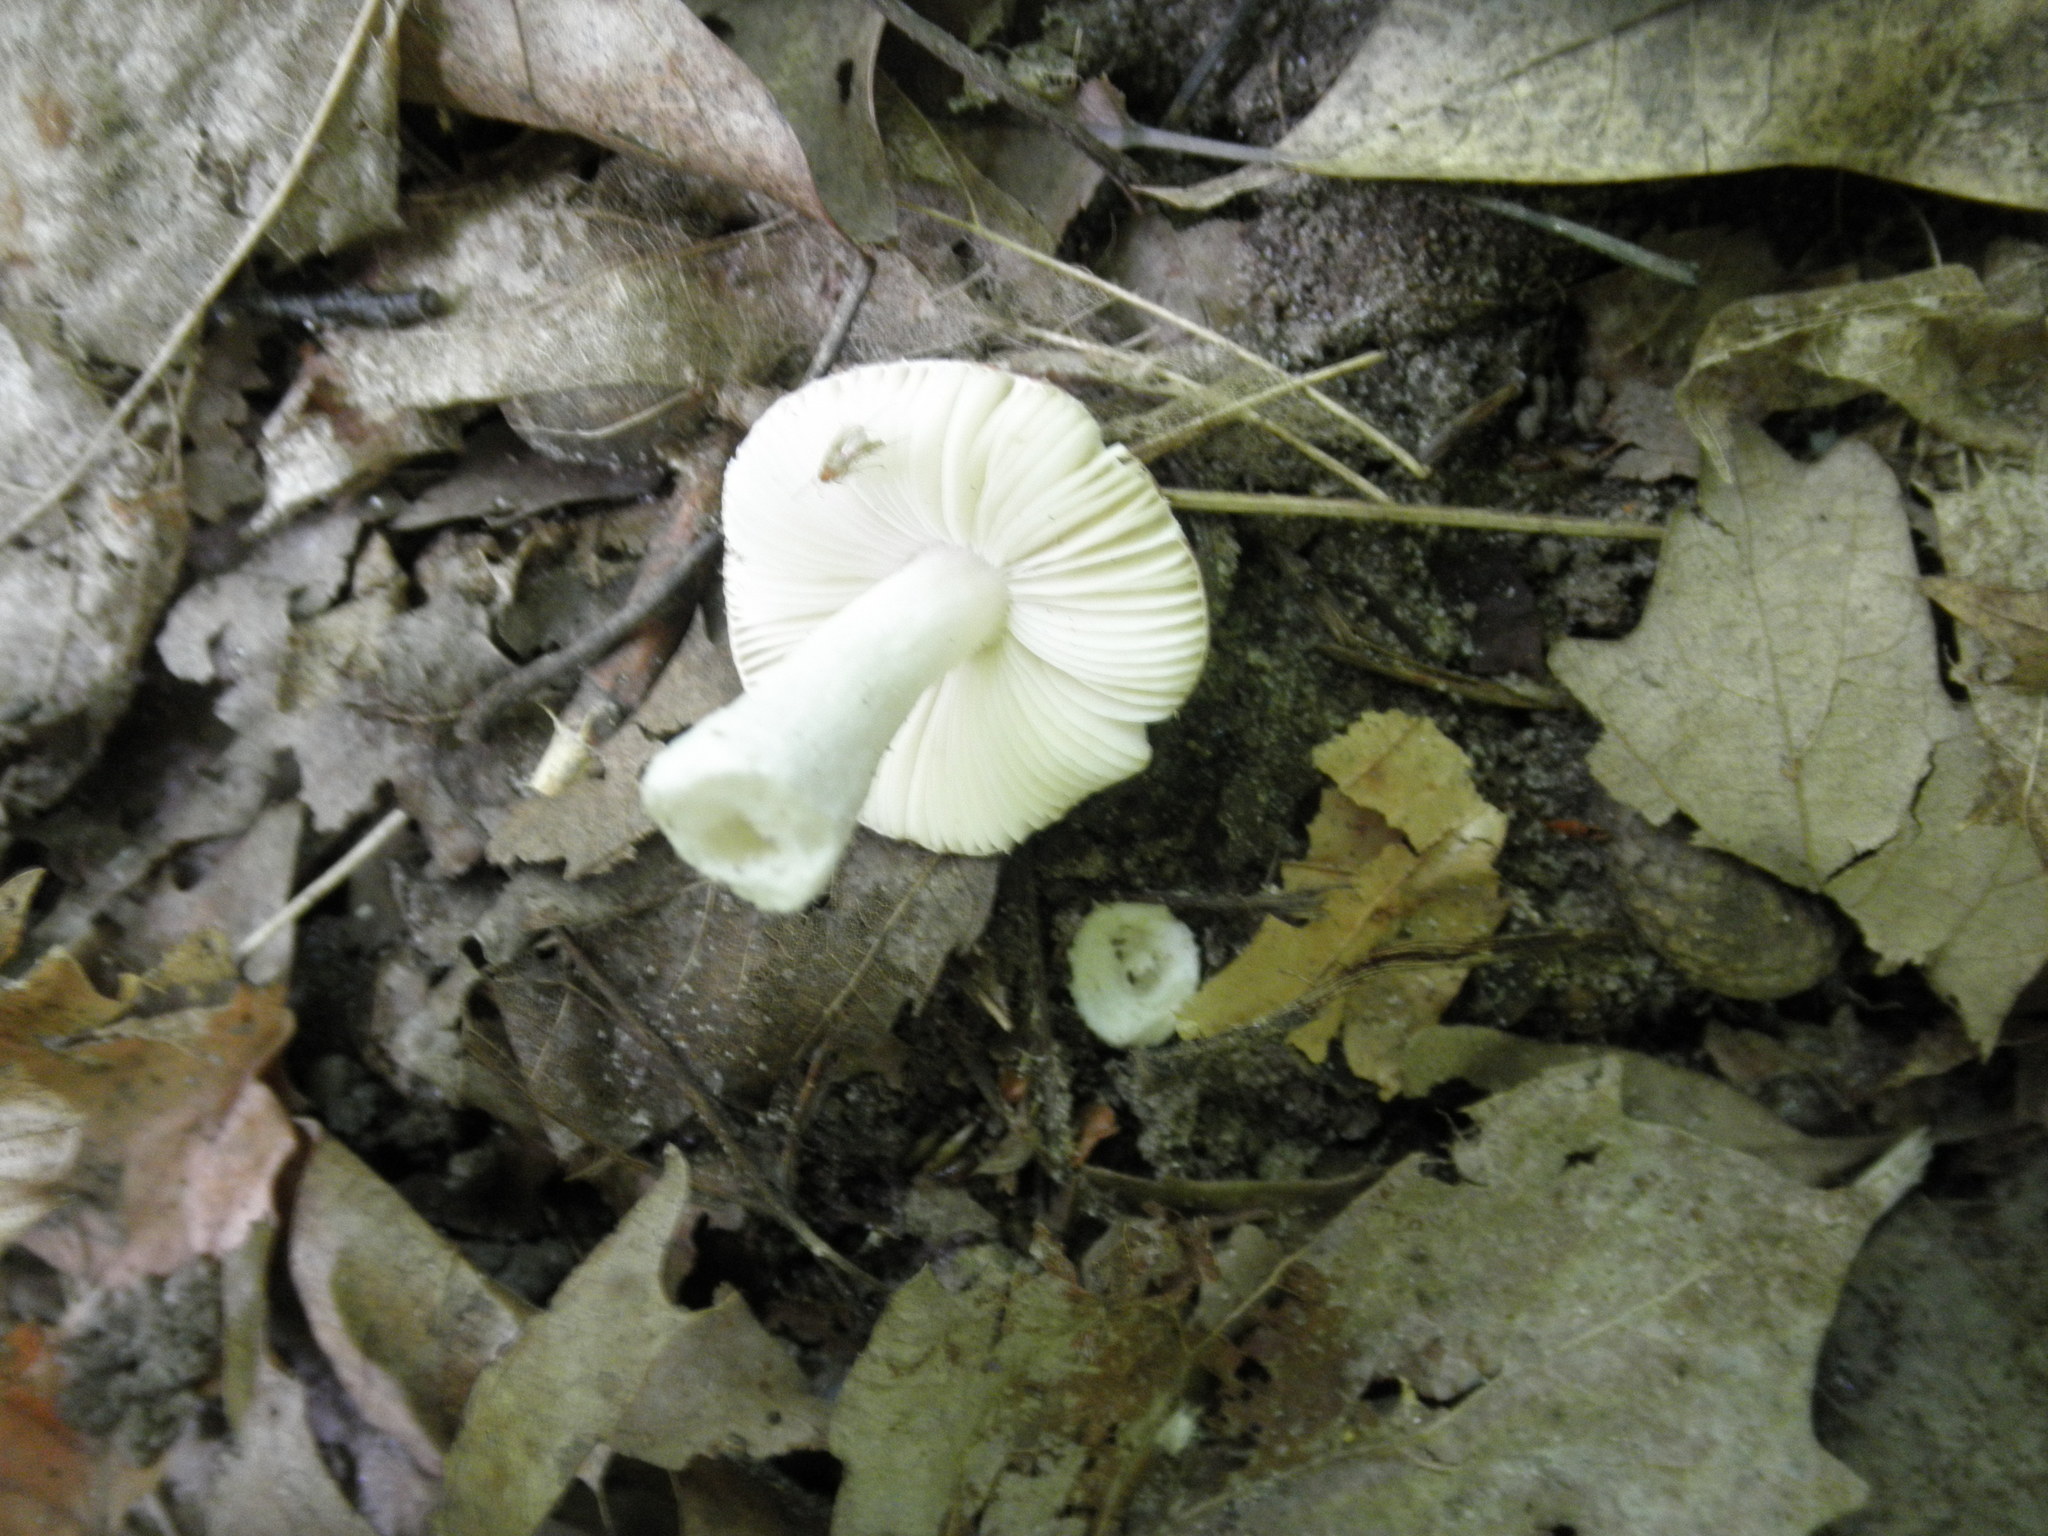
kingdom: Fungi
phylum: Basidiomycota
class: Agaricomycetes
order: Russulales
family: Russulaceae
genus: Russula
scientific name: Russula
